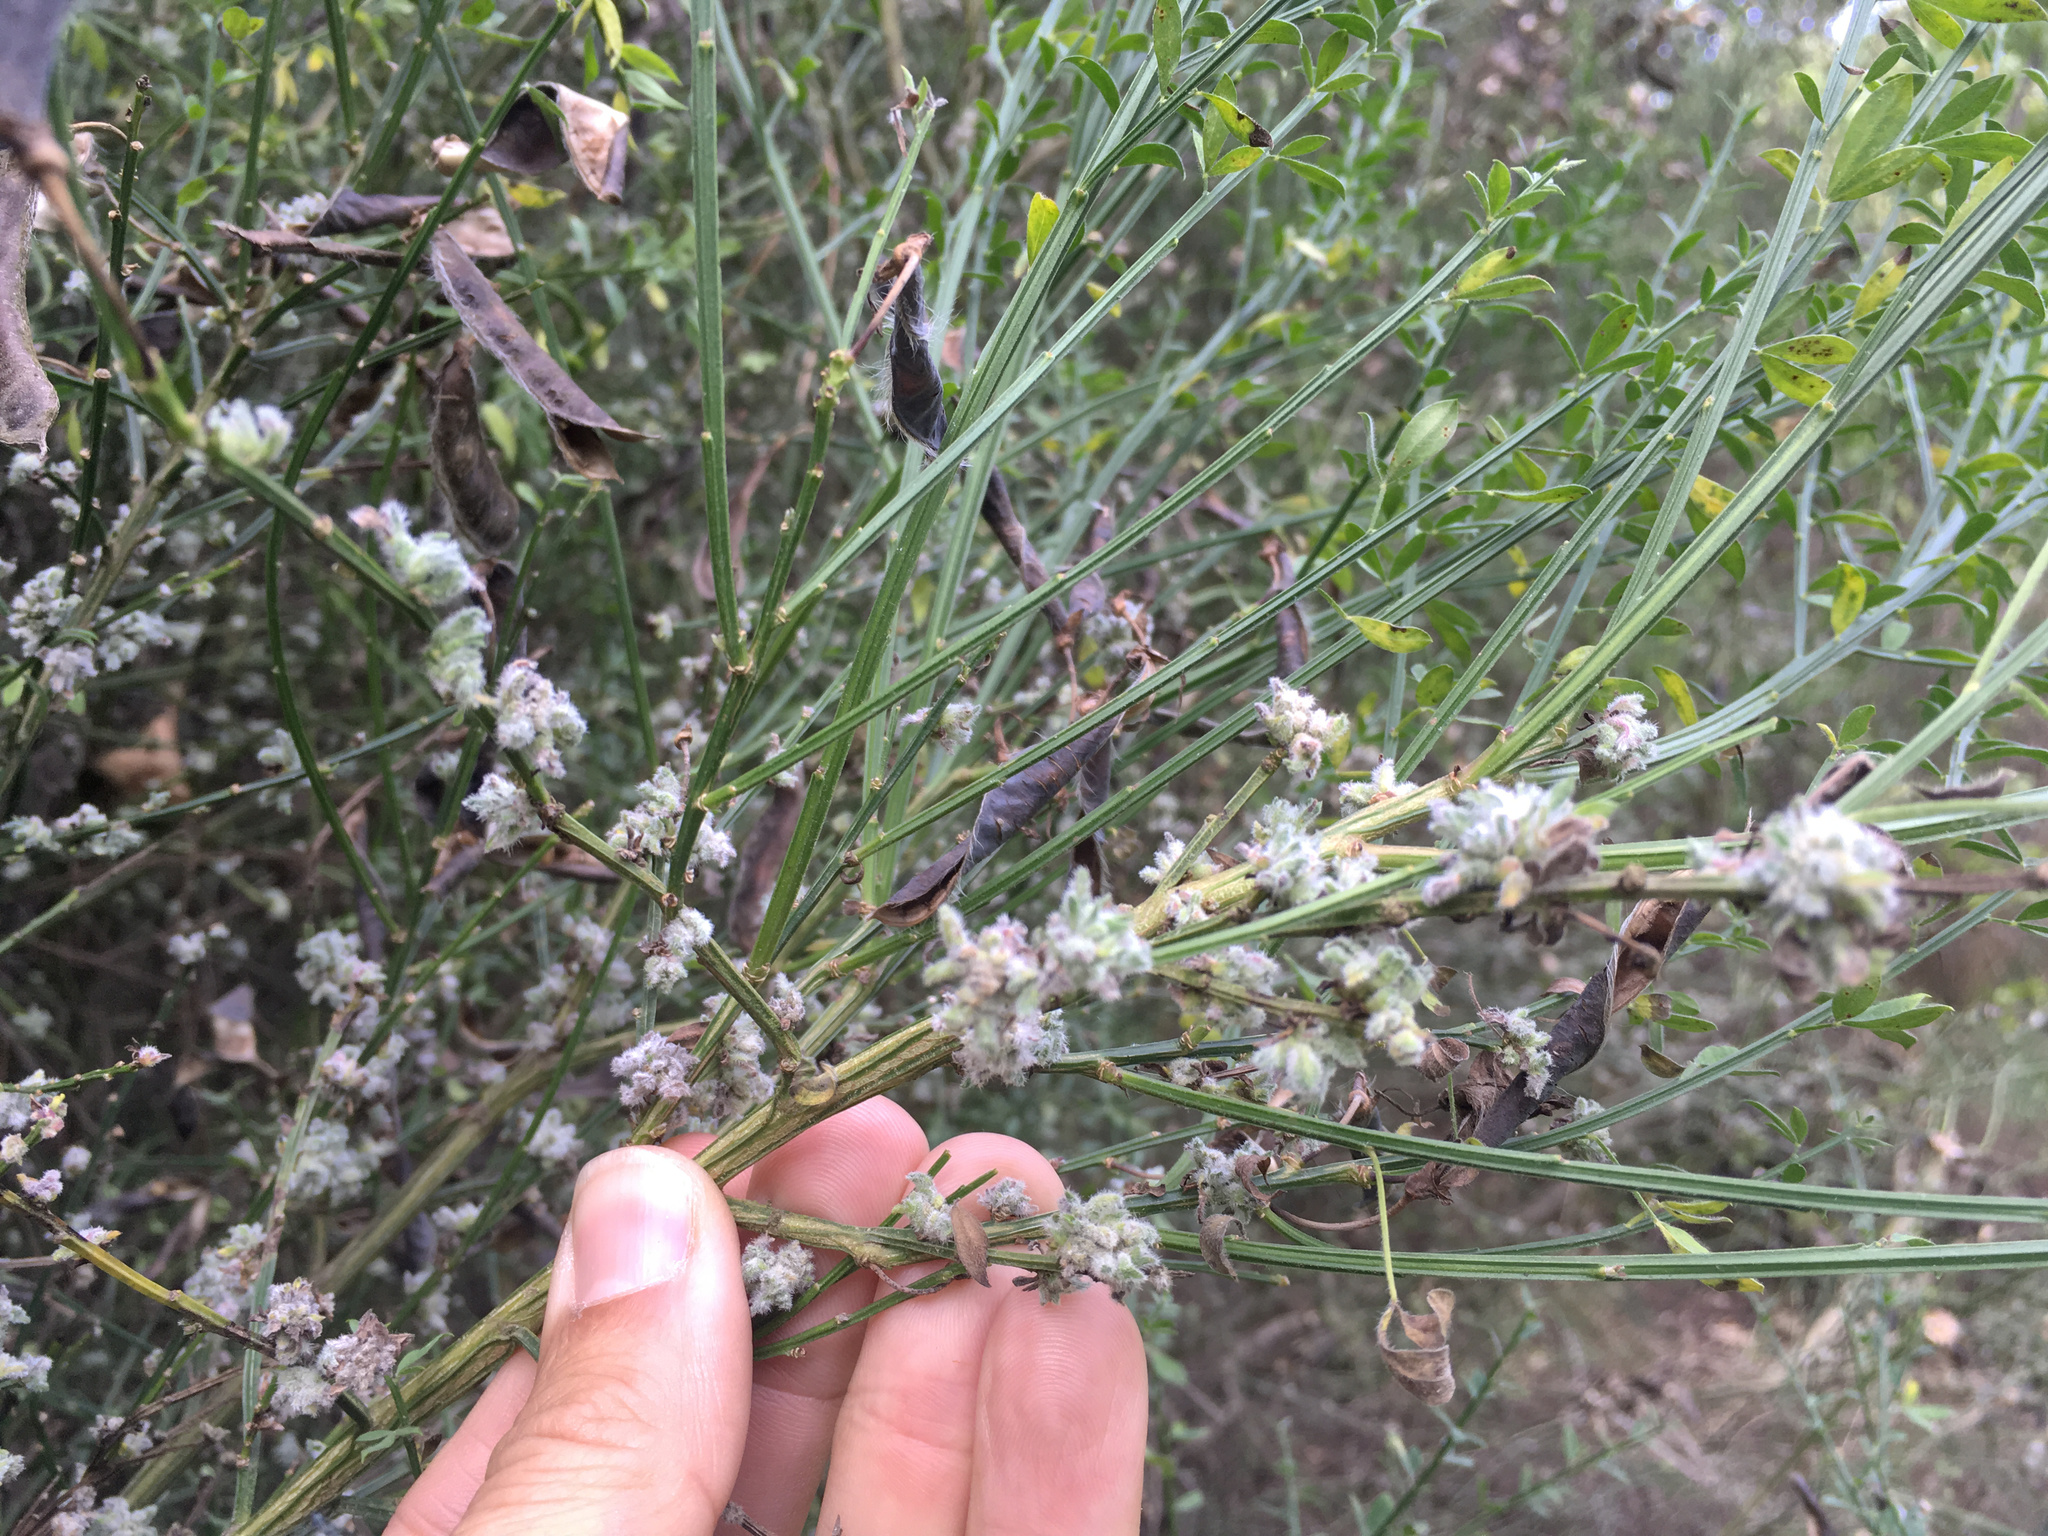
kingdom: Animalia
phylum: Arthropoda
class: Arachnida
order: Trombidiformes
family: Eriophyidae
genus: Aceria
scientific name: Aceria genistae
